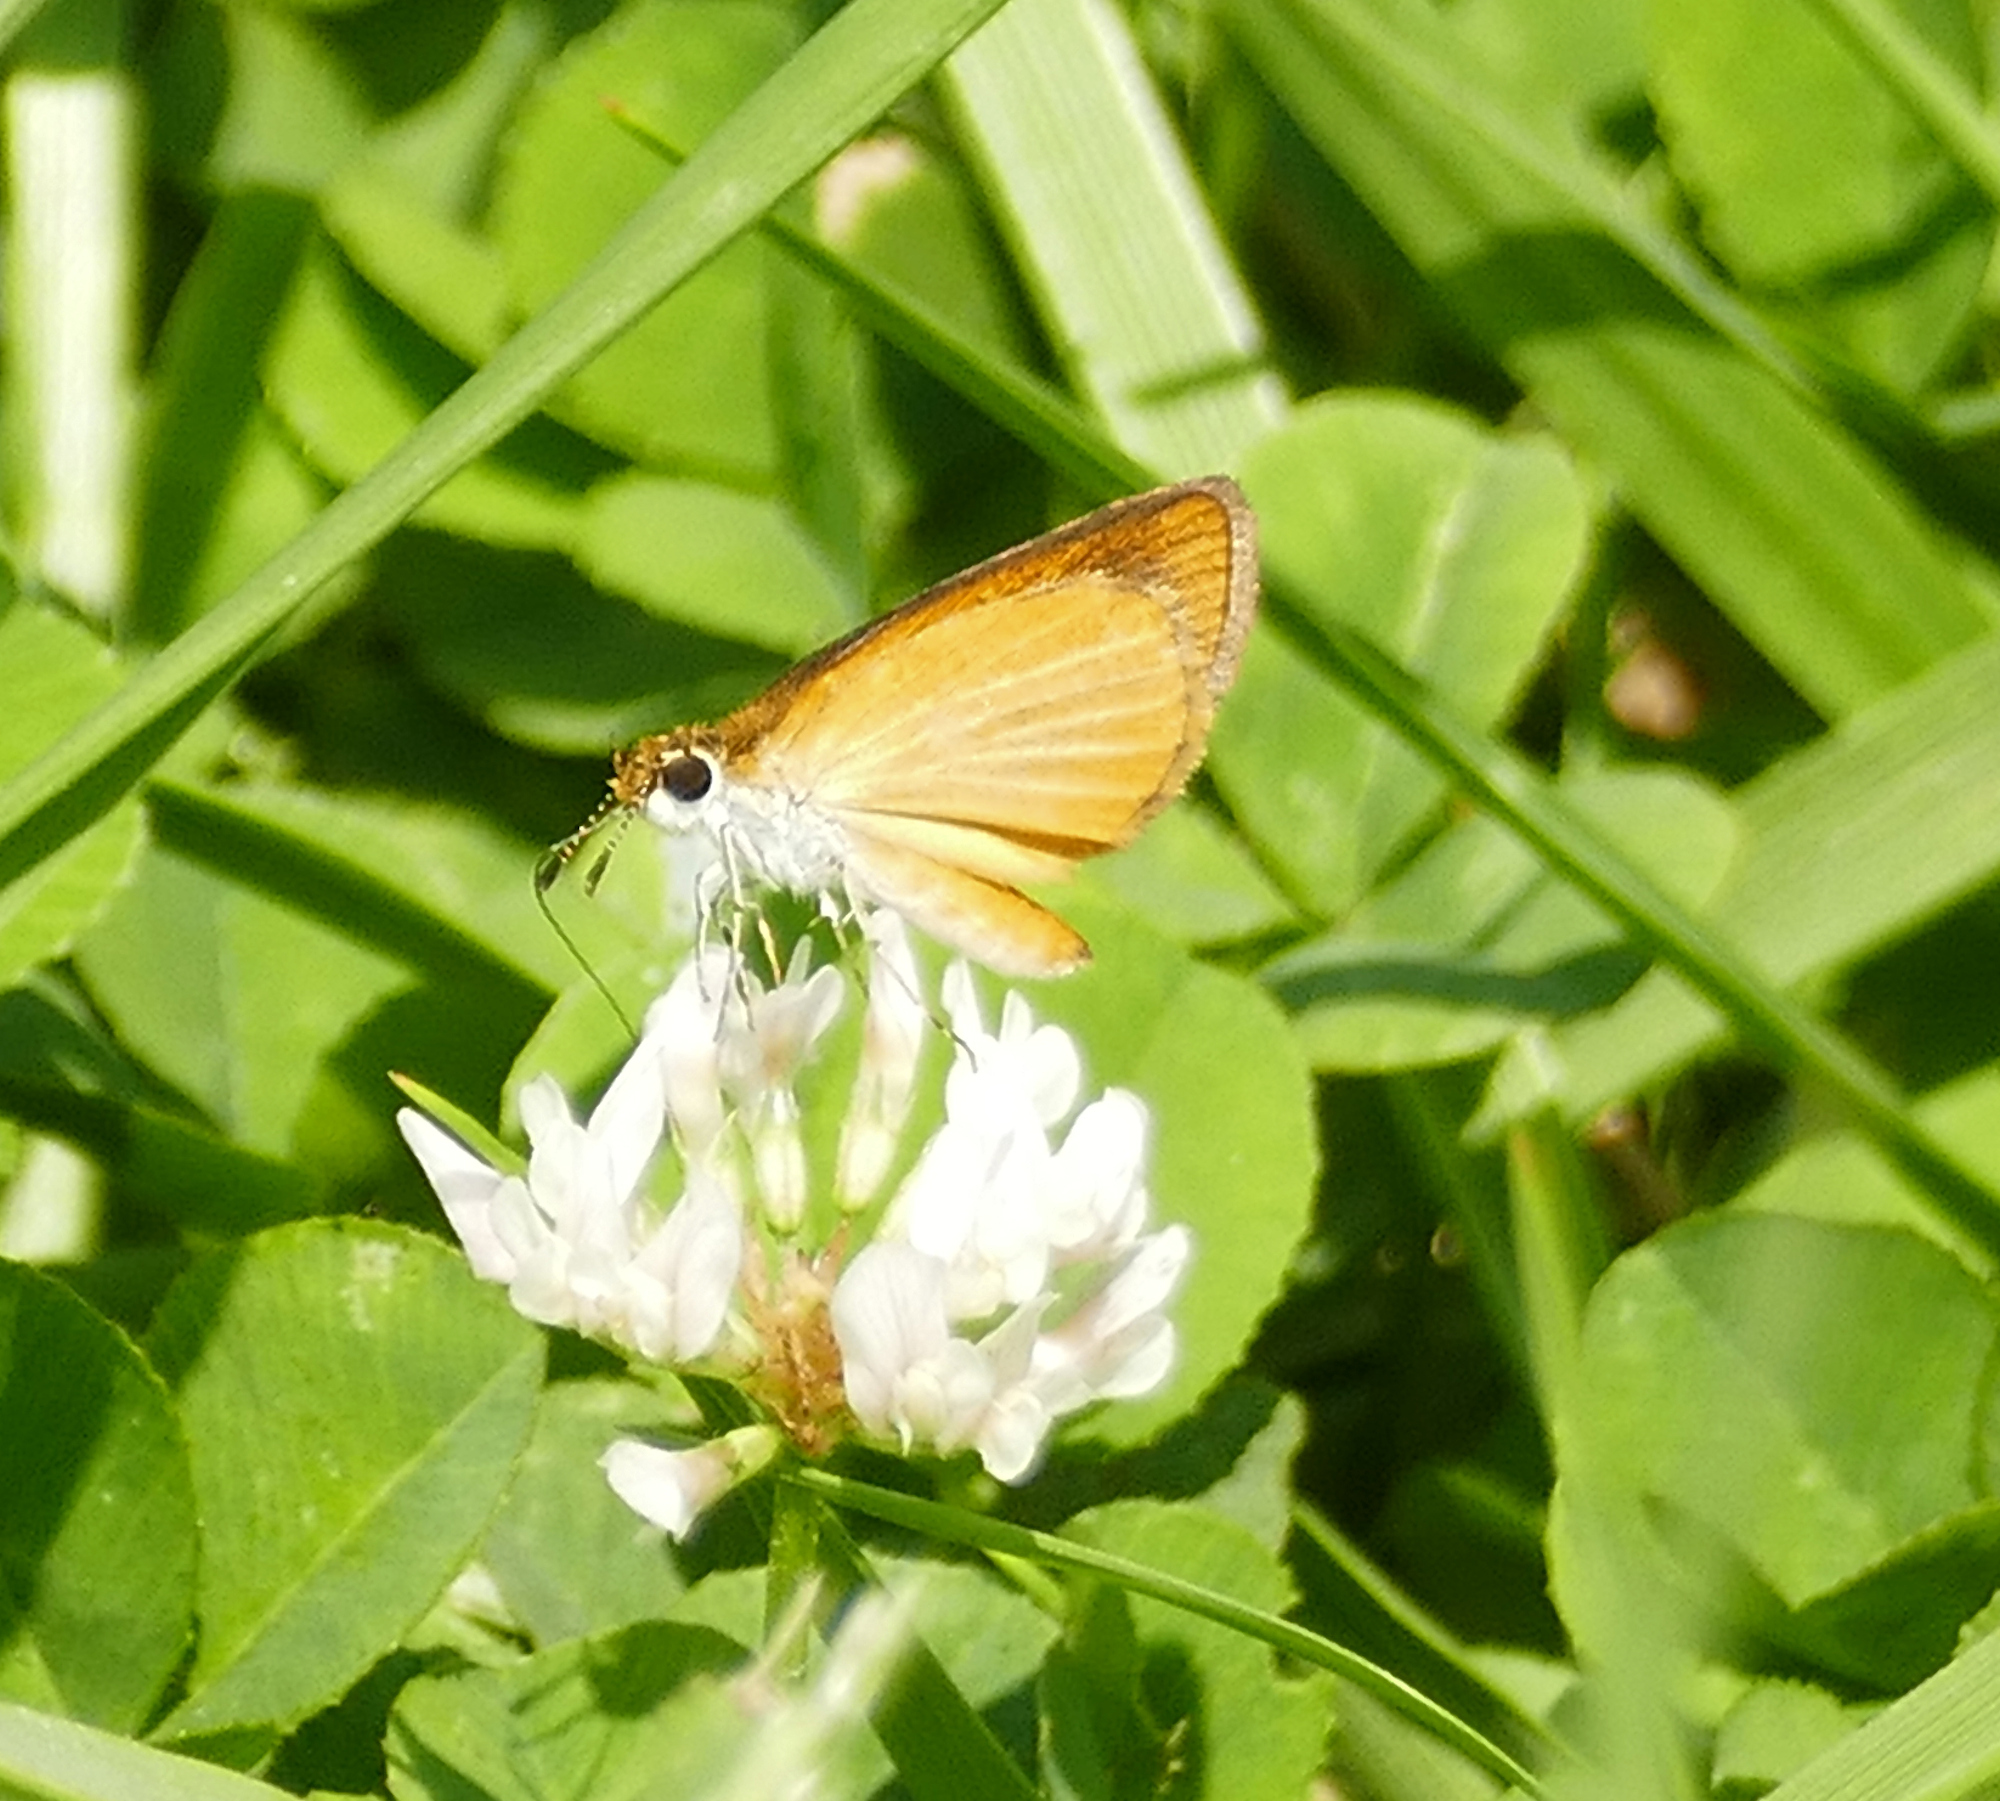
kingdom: Animalia
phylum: Arthropoda
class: Insecta
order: Lepidoptera
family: Hesperiidae
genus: Ancyloxypha
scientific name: Ancyloxypha numitor
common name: Least skipper
